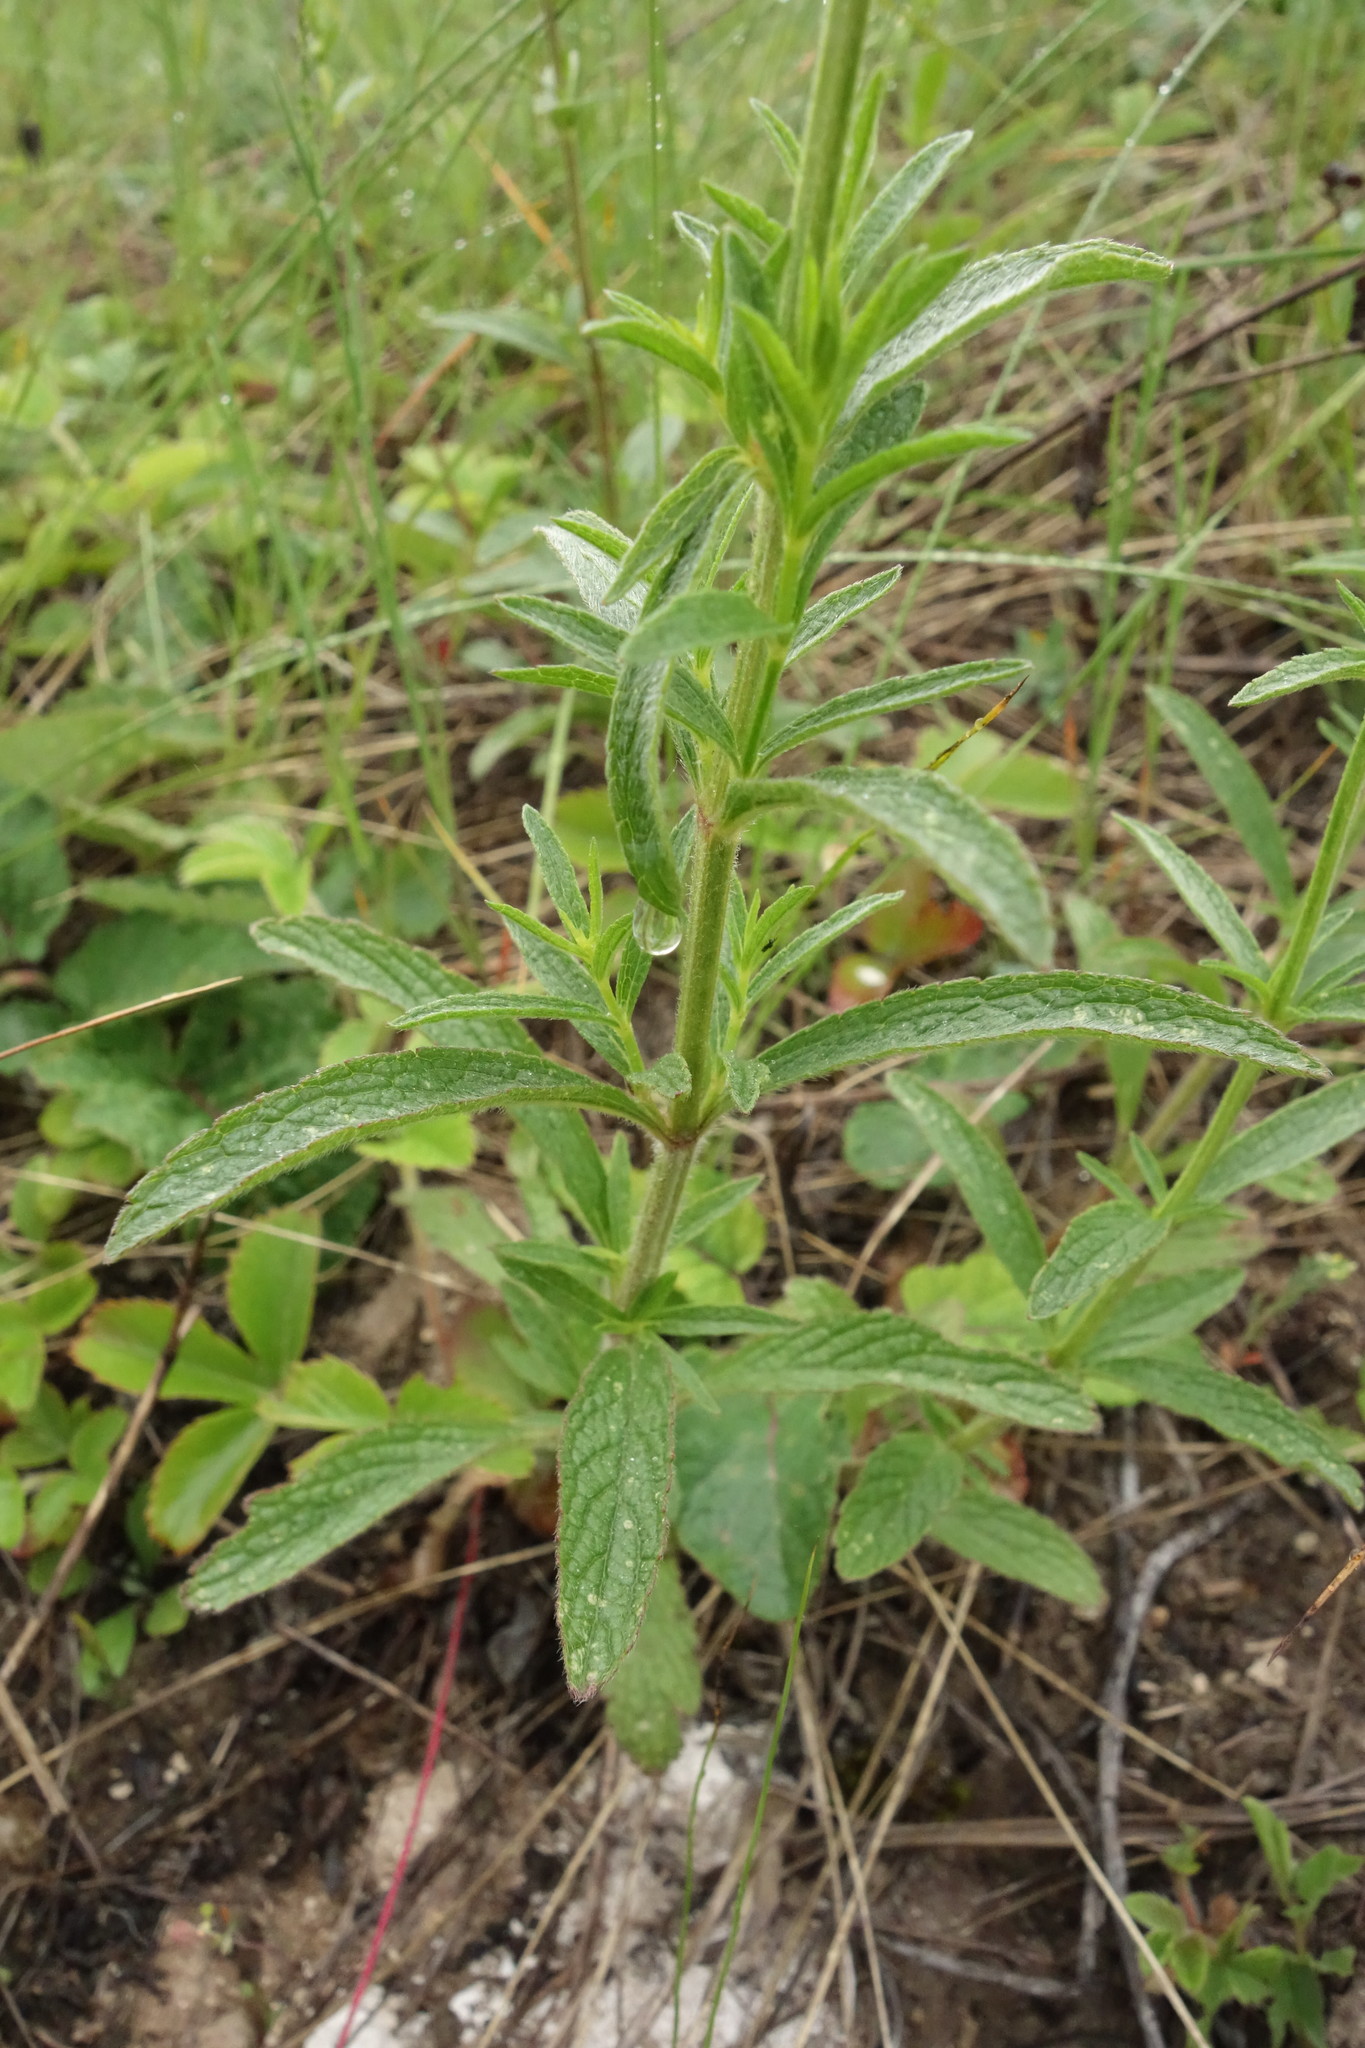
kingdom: Plantae
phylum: Tracheophyta
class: Magnoliopsida
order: Lamiales
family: Lamiaceae
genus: Stachys
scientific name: Stachys recta
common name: Perennial yellow-woundwort
